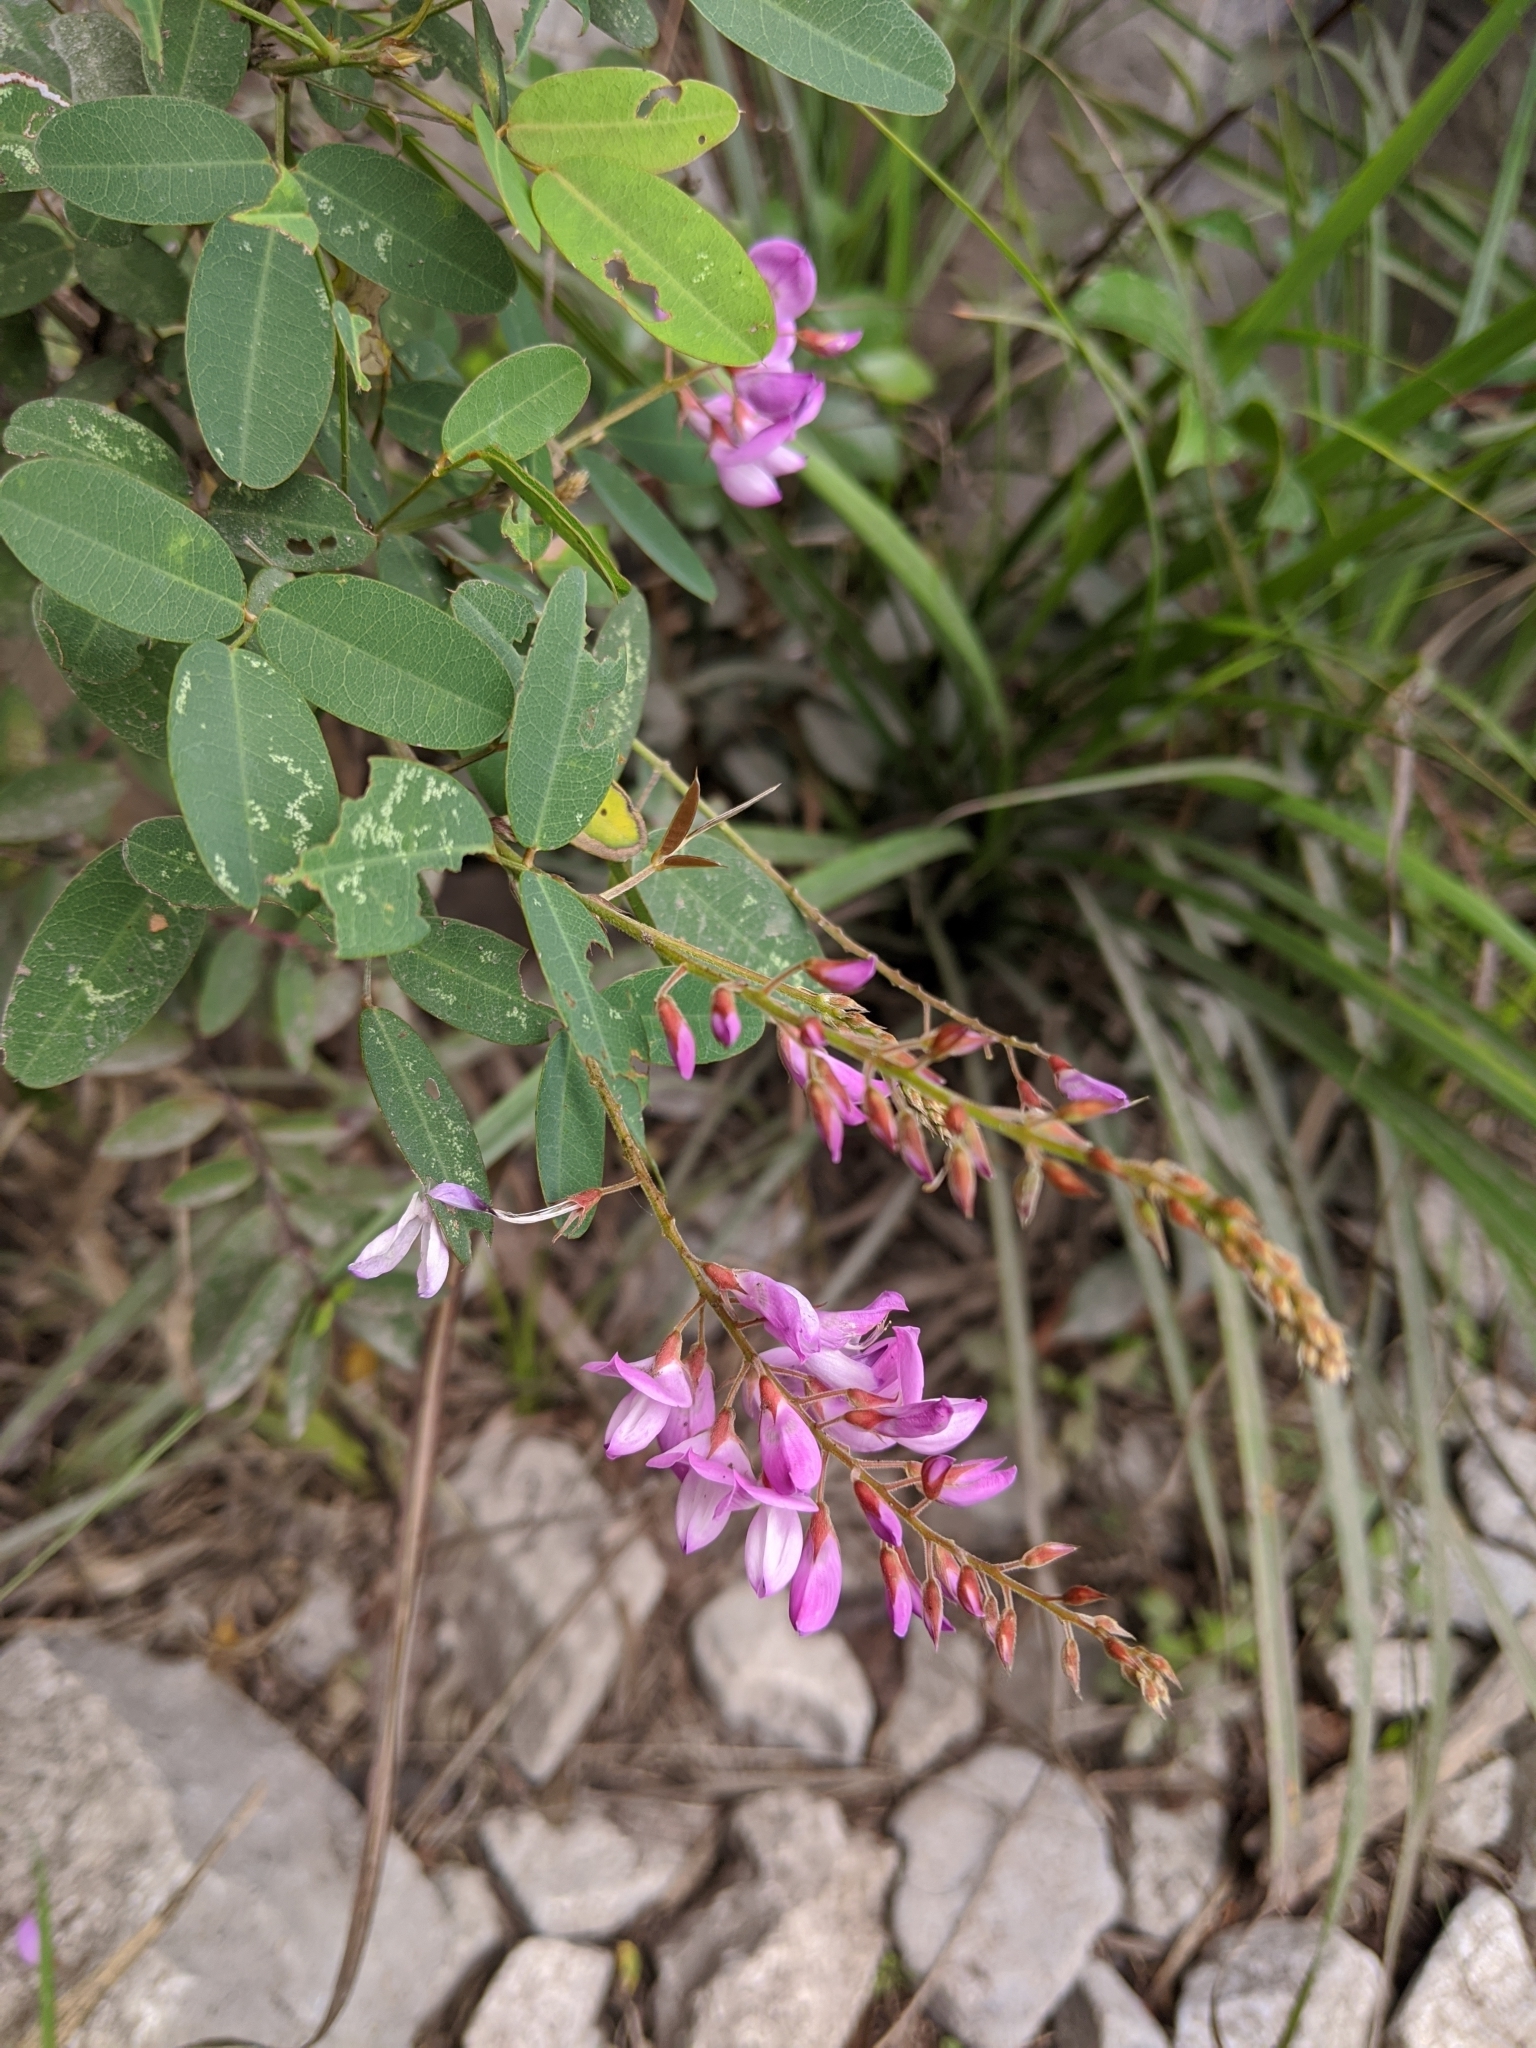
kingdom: Plantae
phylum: Tracheophyta
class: Magnoliopsida
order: Fabales
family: Fabaceae
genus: Campylotropis
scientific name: Campylotropis macrocarpa
